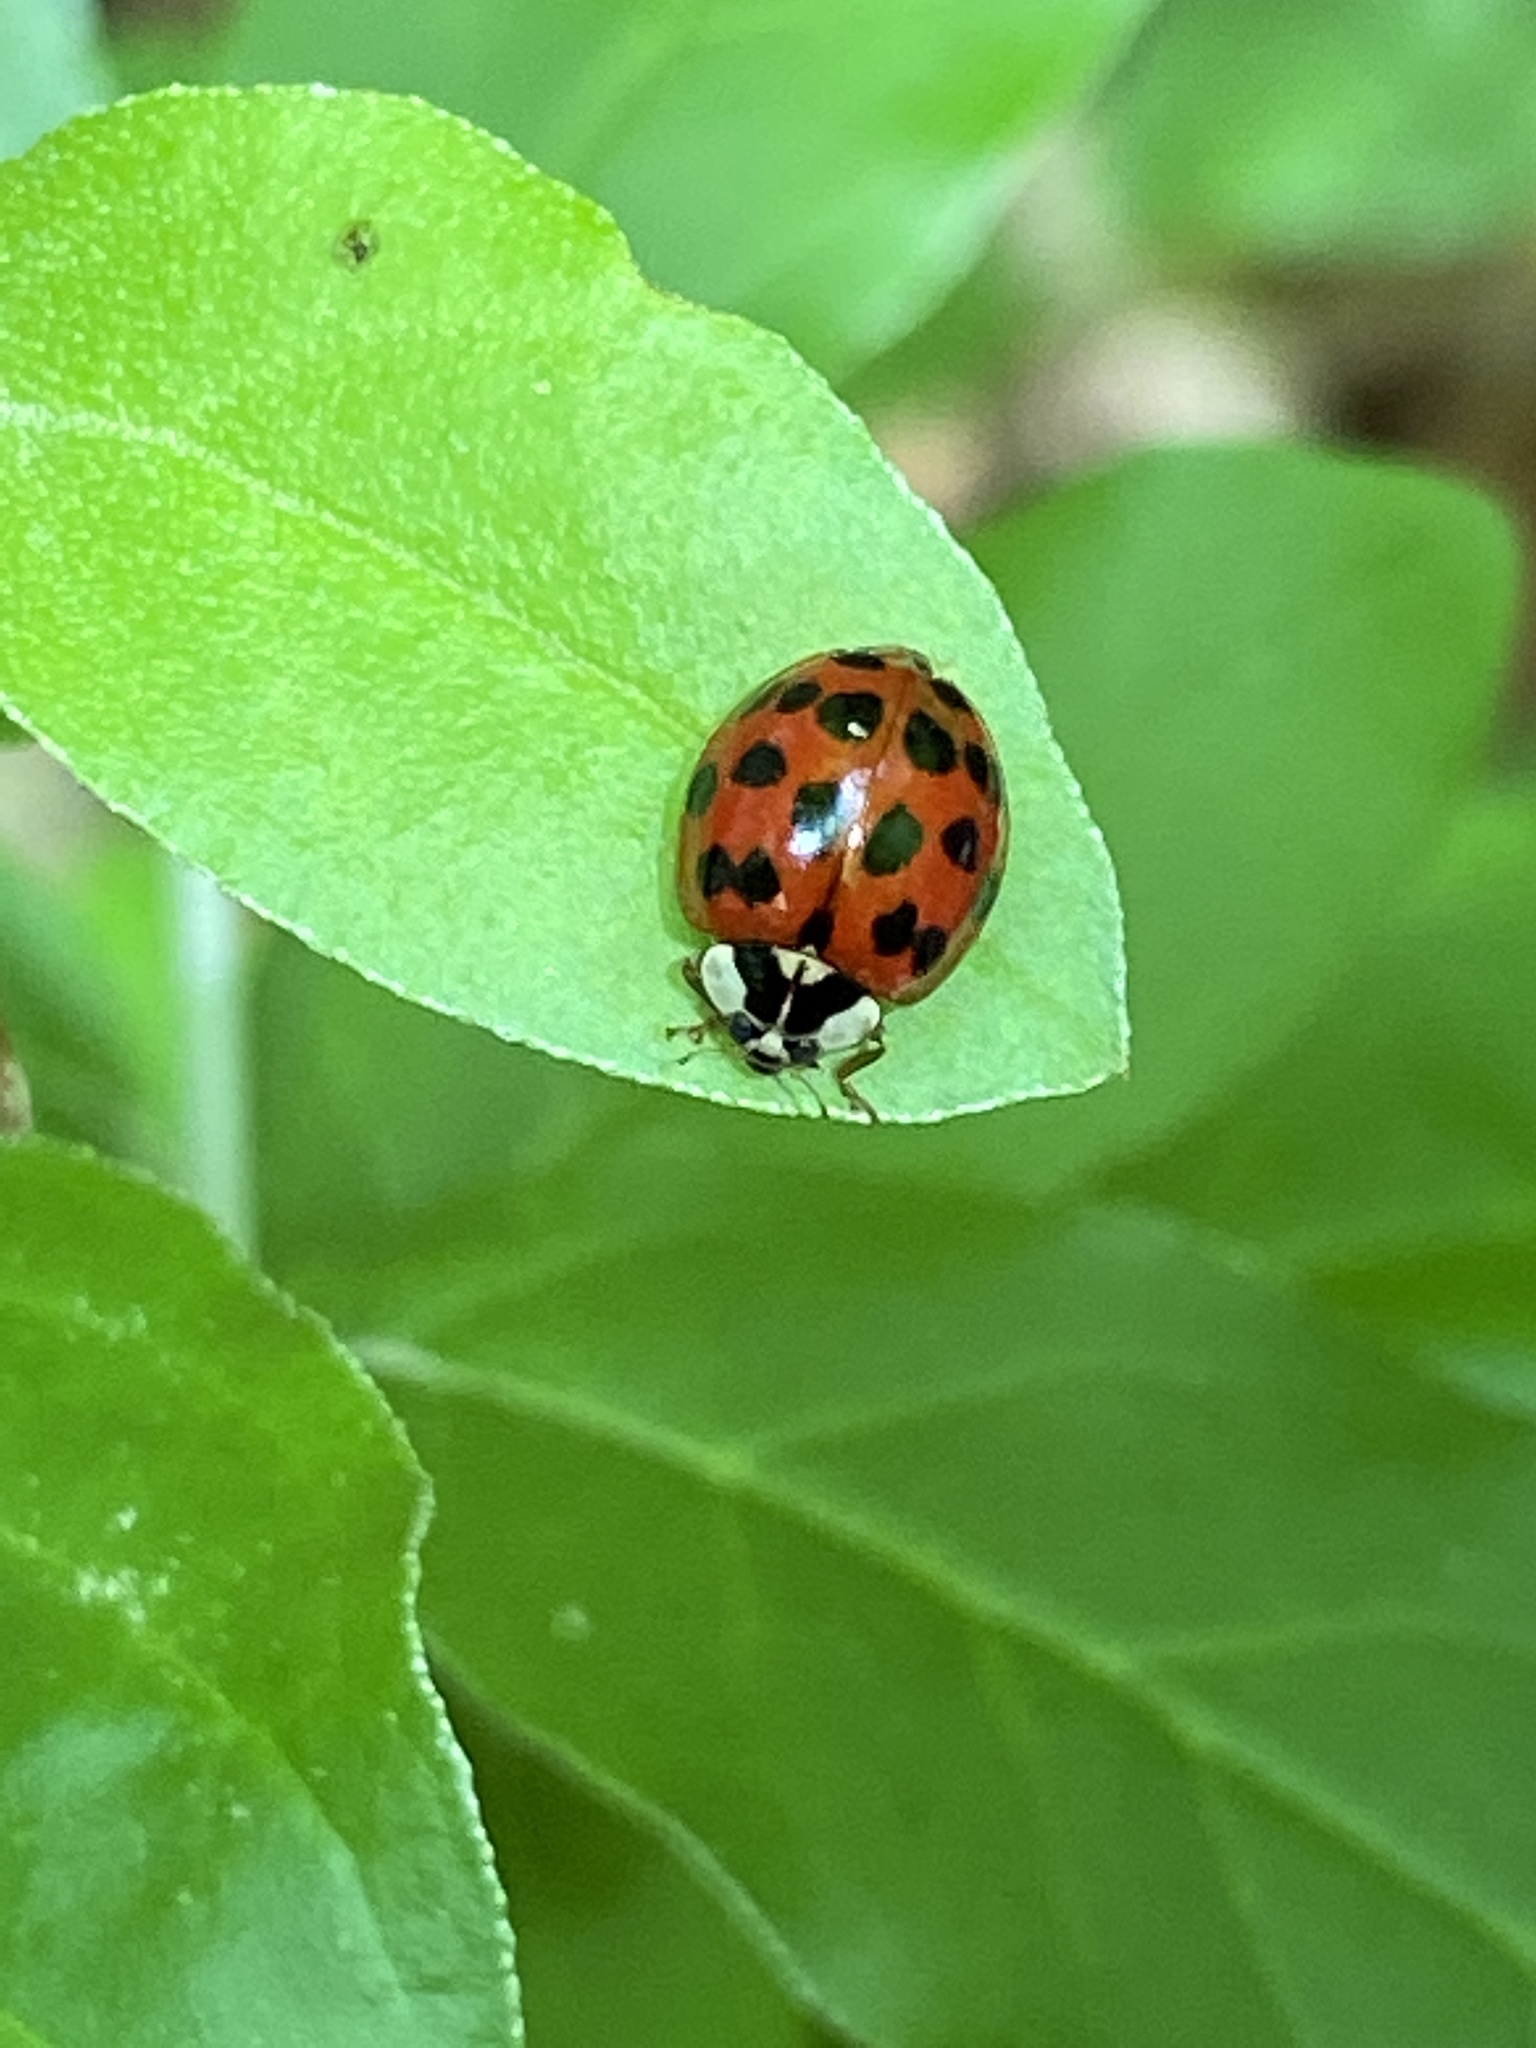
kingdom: Animalia
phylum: Arthropoda
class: Insecta
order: Coleoptera
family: Coccinellidae
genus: Harmonia
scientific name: Harmonia axyridis
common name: Harlequin ladybird
